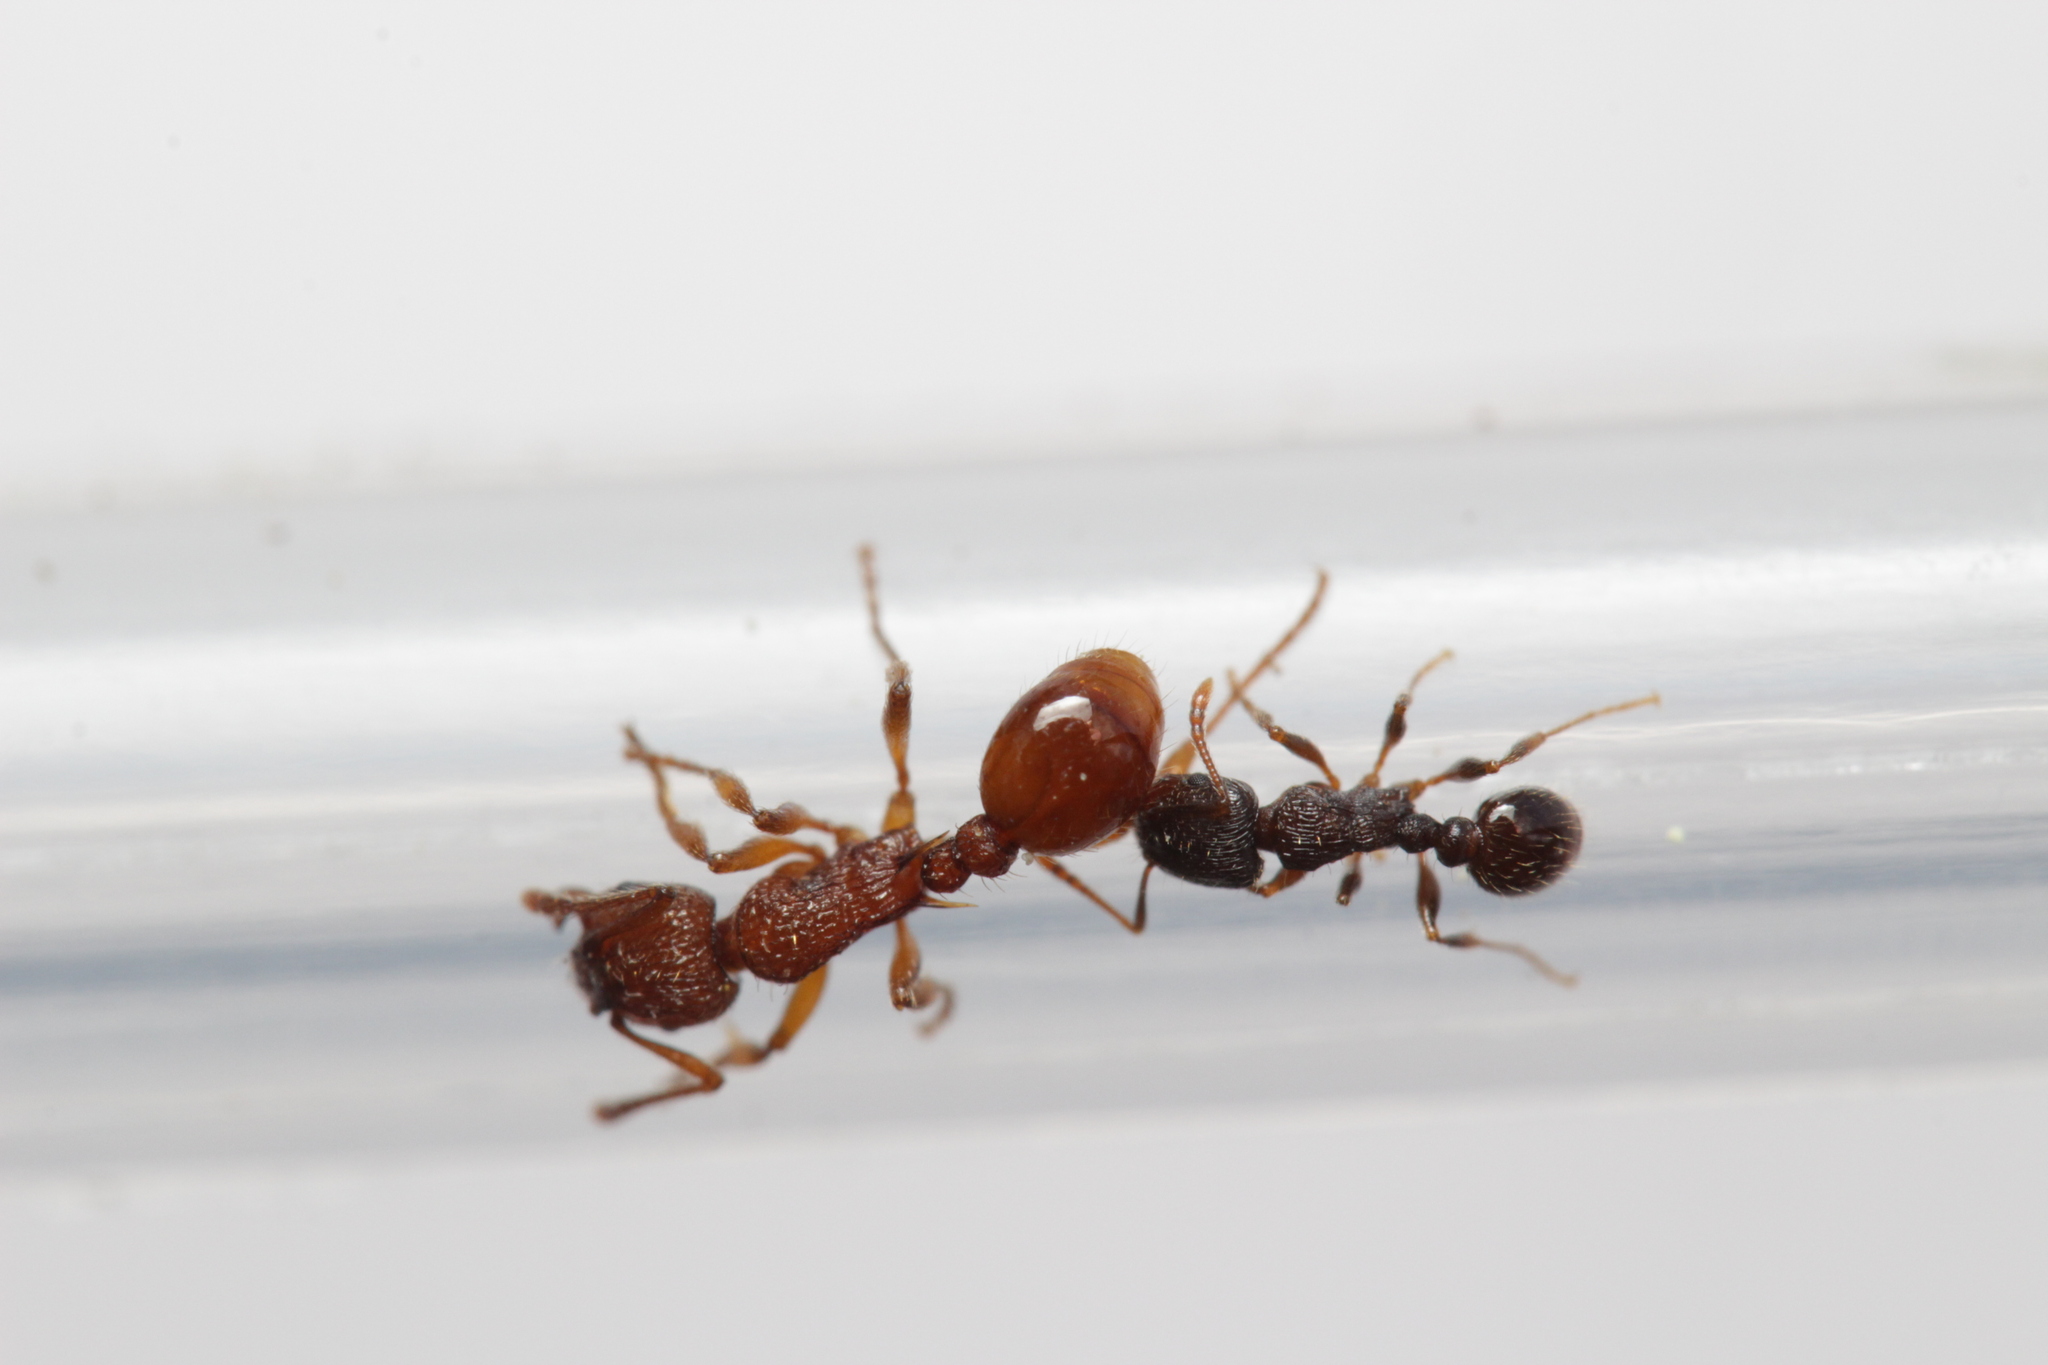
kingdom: Animalia
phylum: Arthropoda
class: Insecta
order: Hymenoptera
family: Formicidae
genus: Tetramorium
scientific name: Tetramorium
